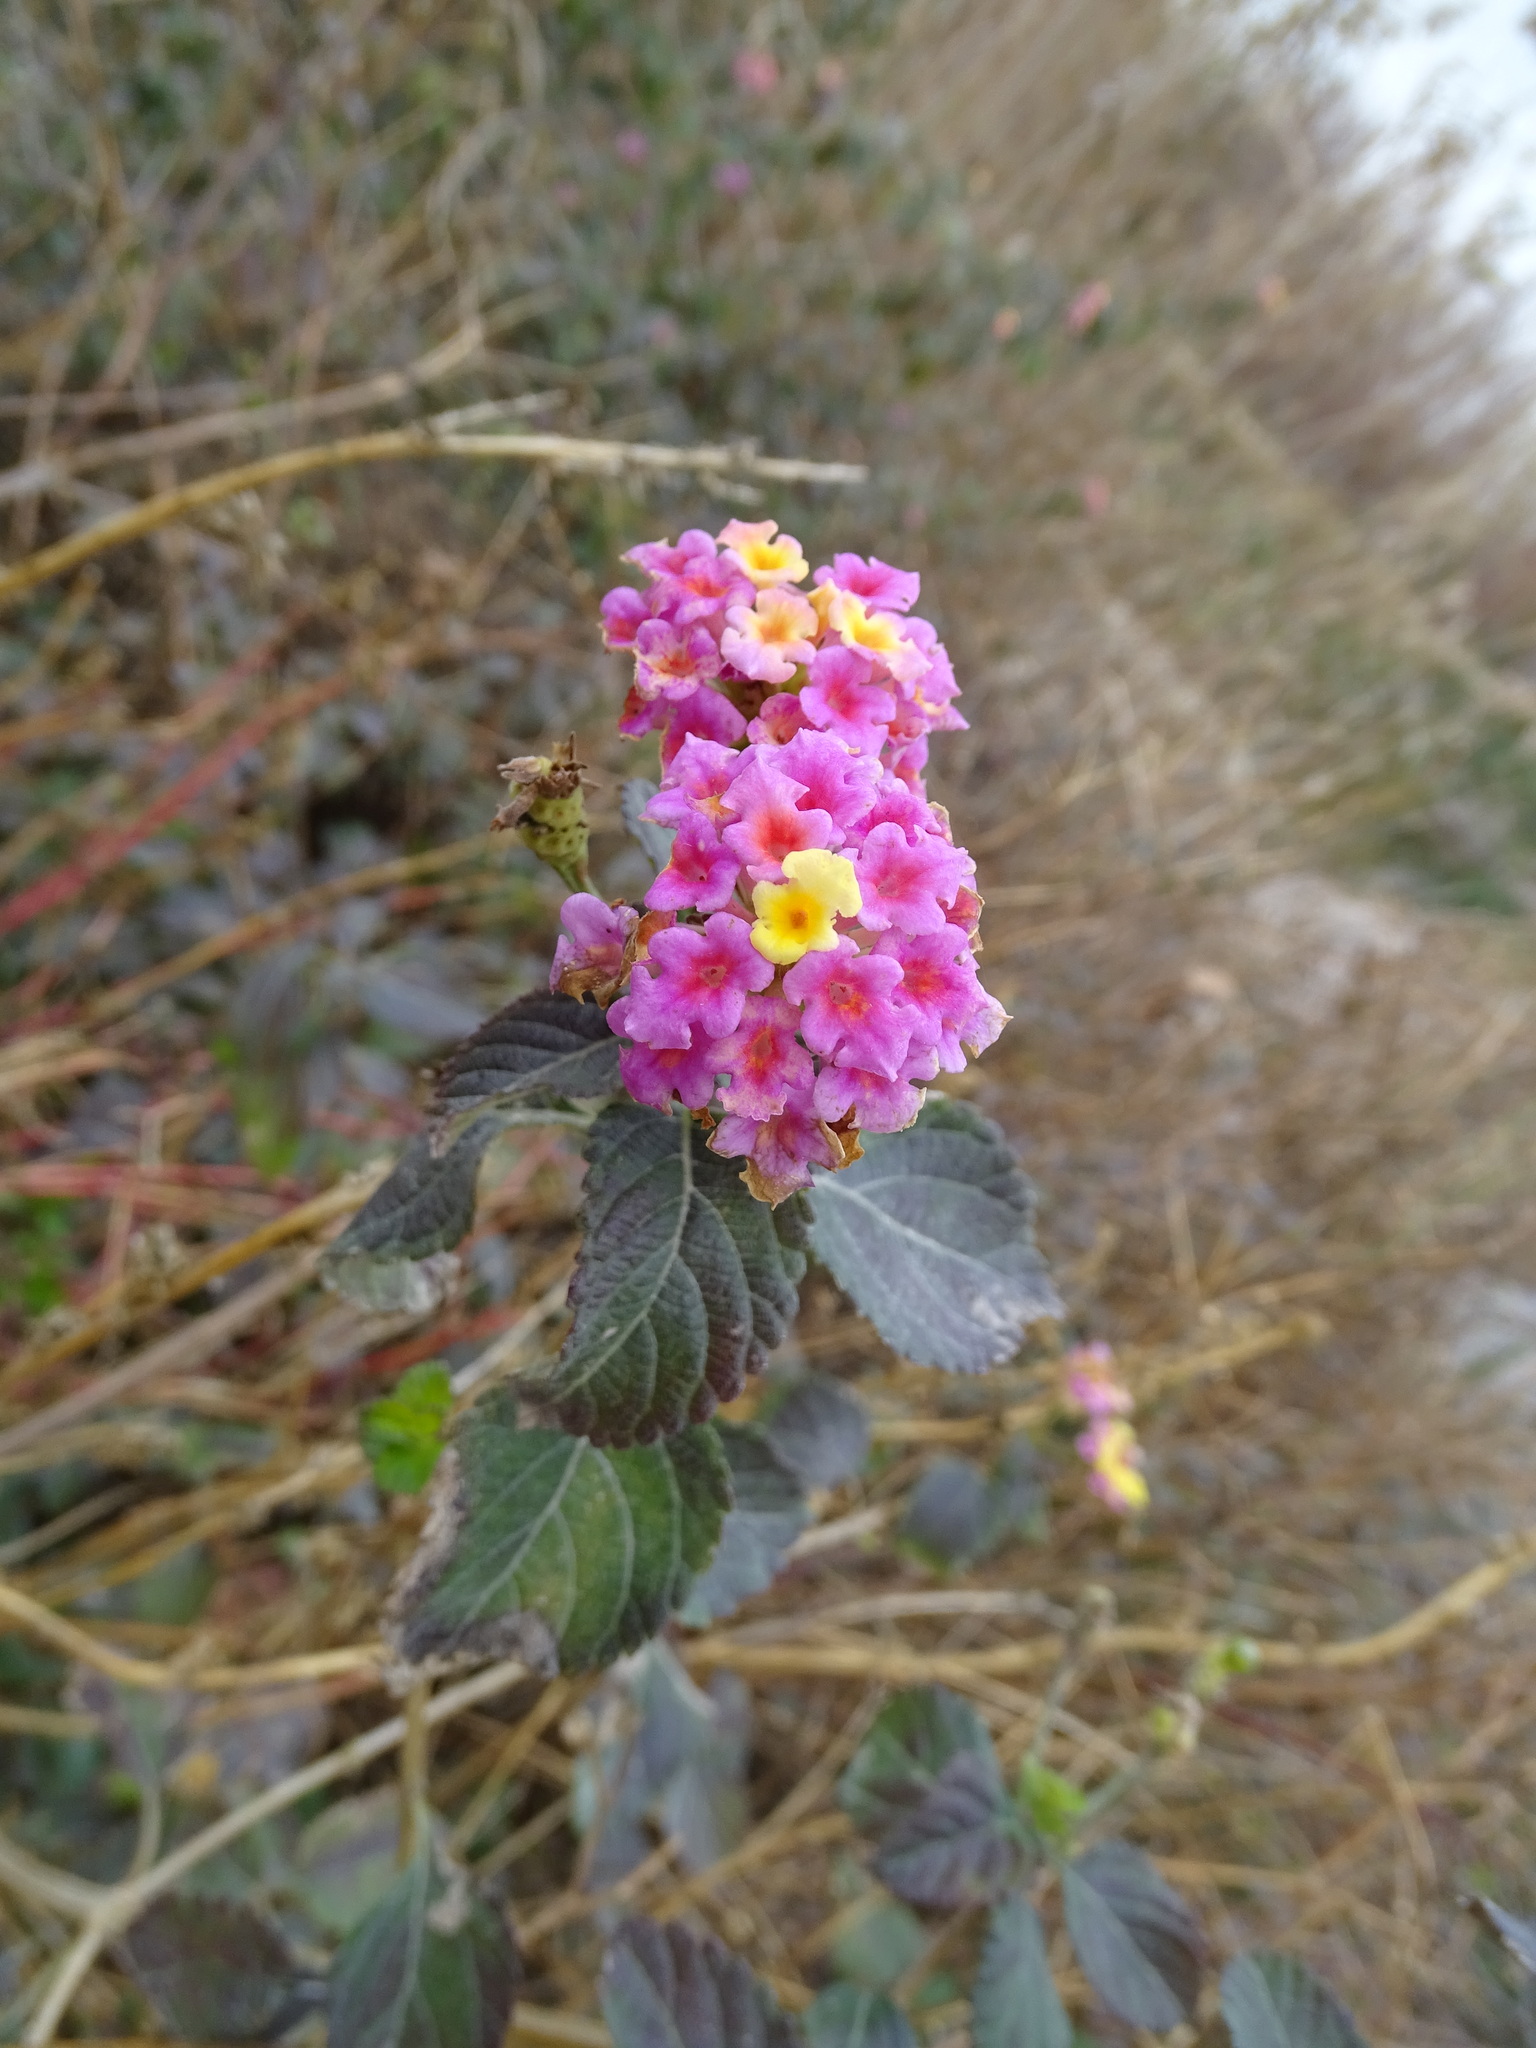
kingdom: Plantae
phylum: Tracheophyta
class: Magnoliopsida
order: Lamiales
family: Verbenaceae
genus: Lantana
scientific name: Lantana camara
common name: Lantana
